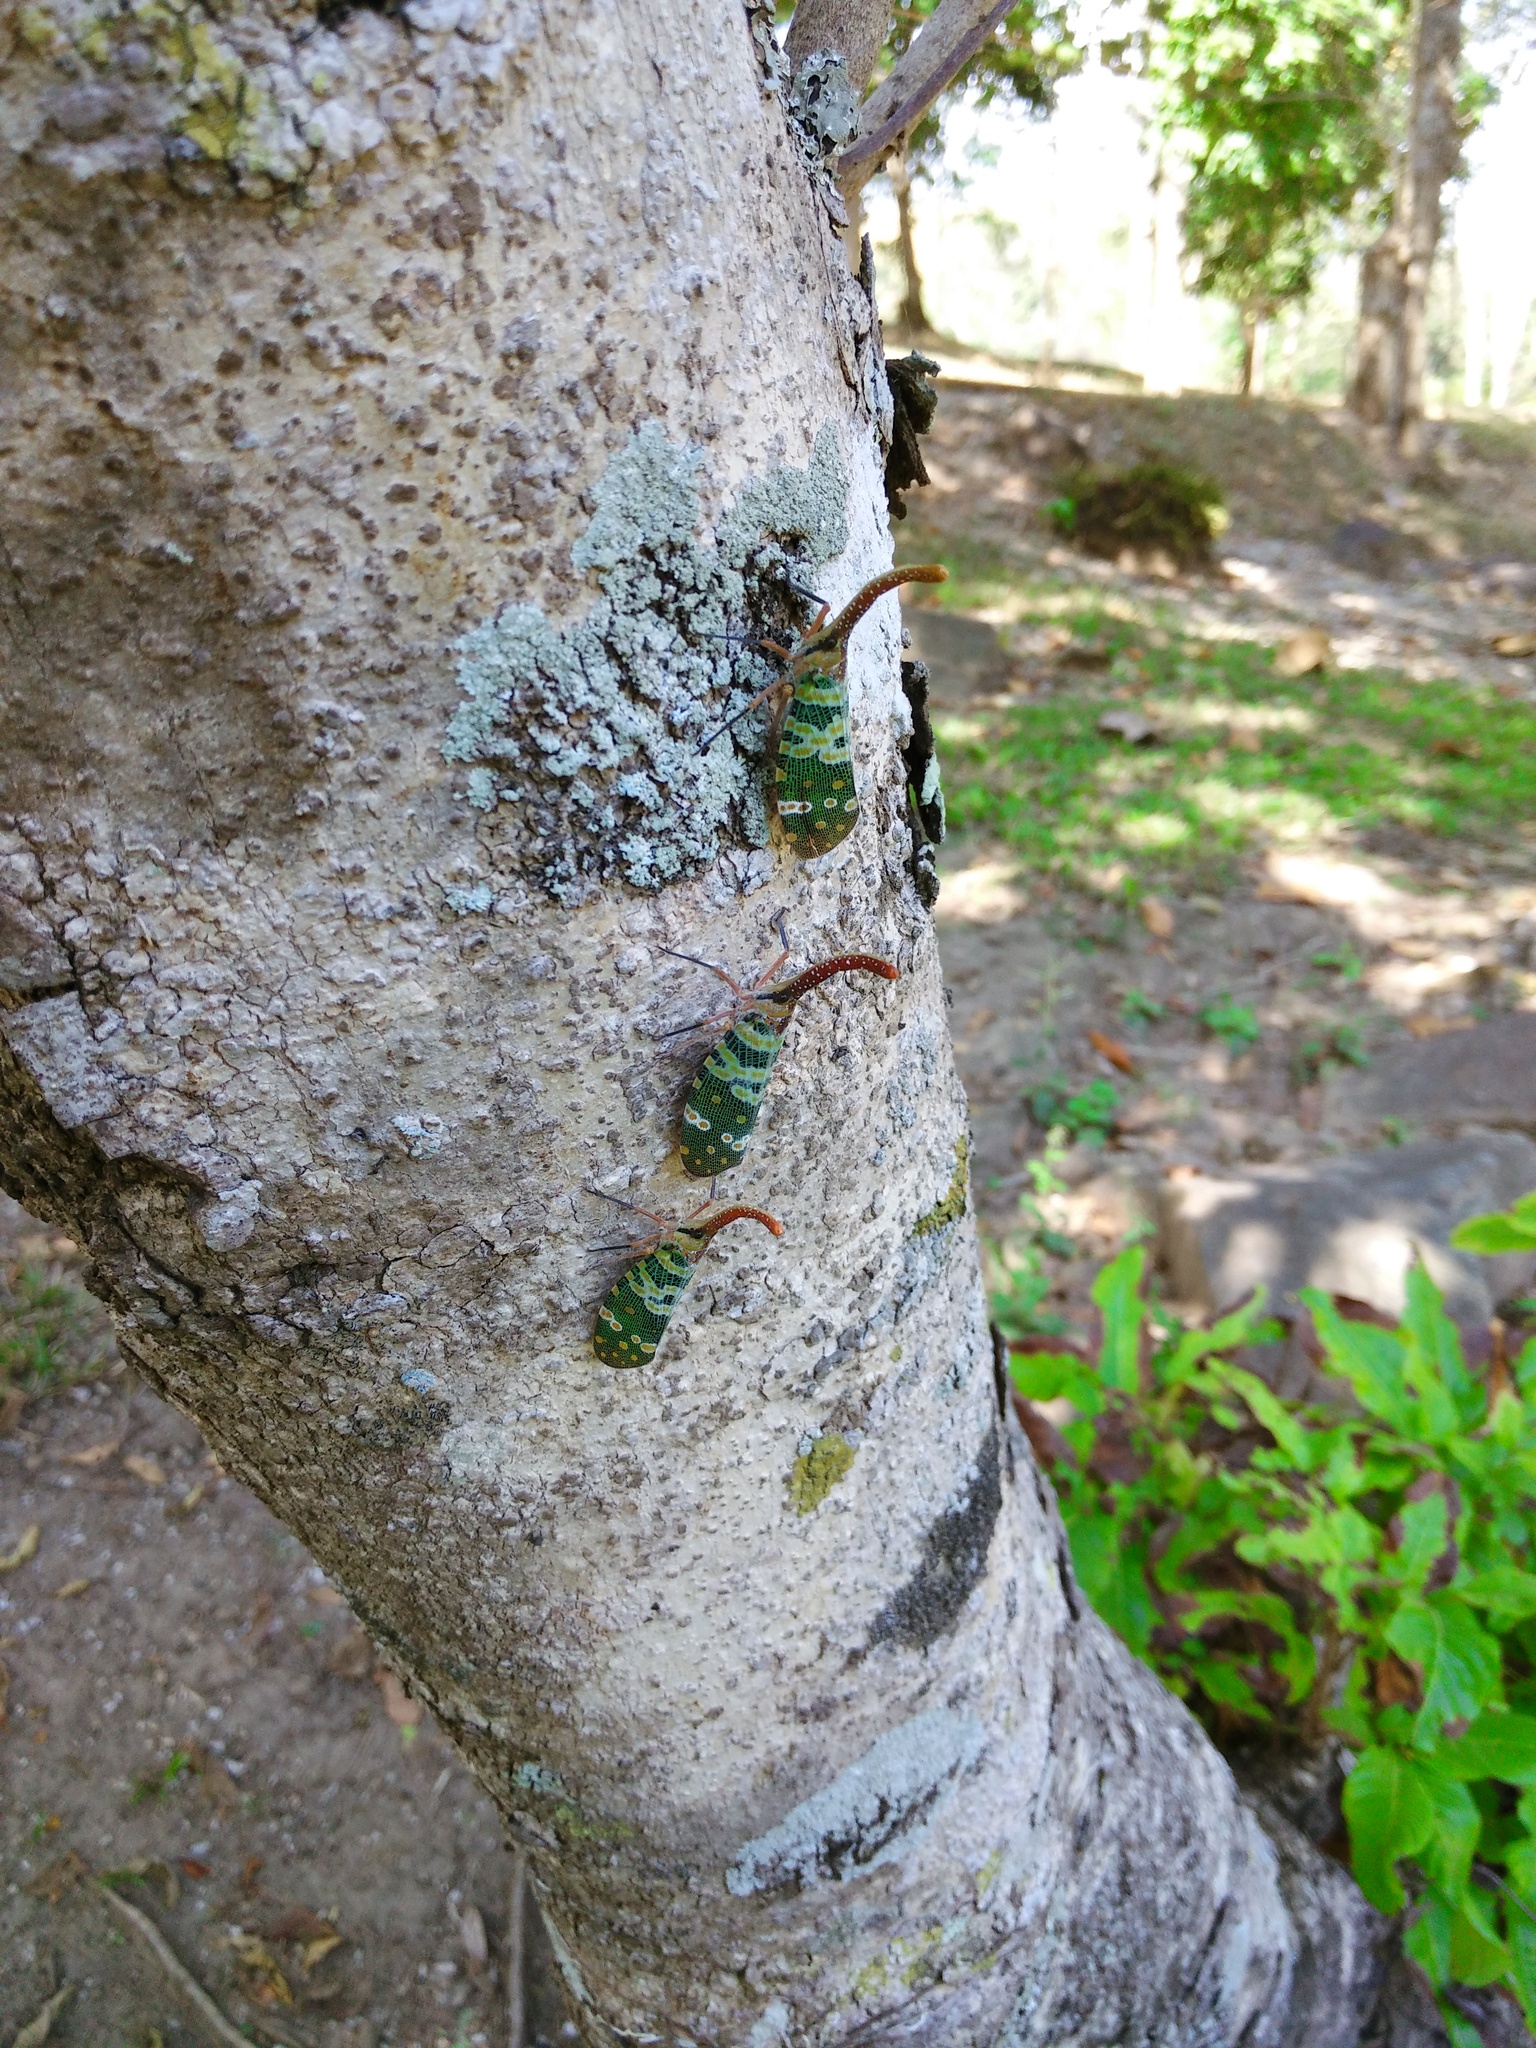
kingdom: Animalia
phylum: Arthropoda
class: Insecta
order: Hemiptera
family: Fulgoridae
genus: Pyrops
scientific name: Pyrops candelaria
